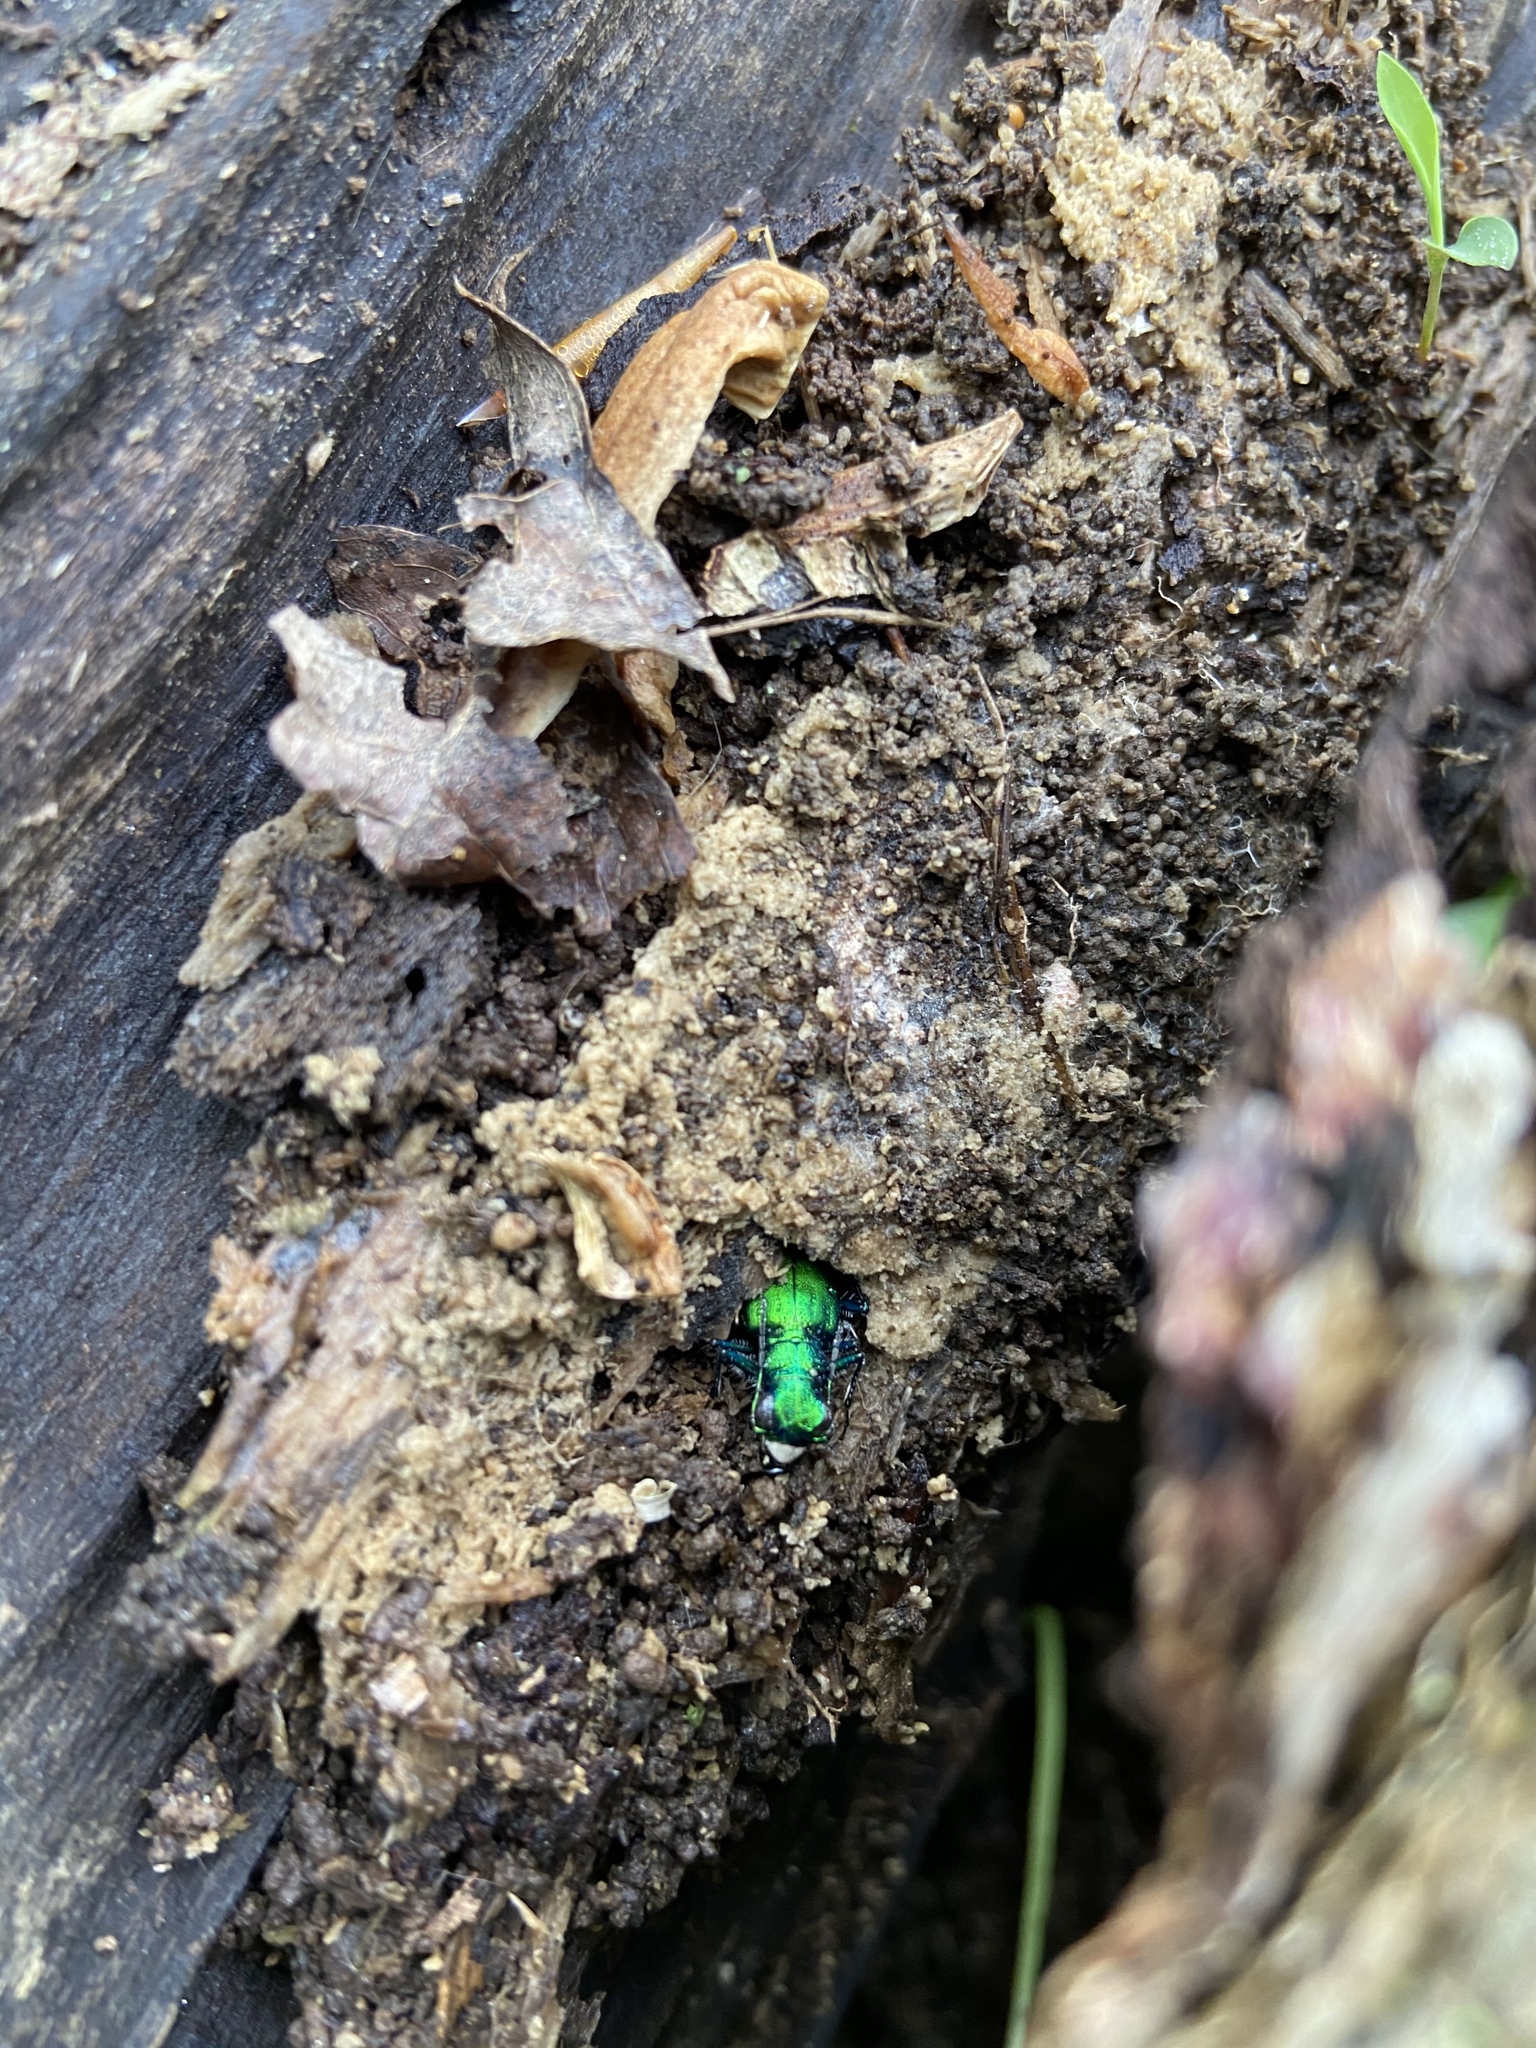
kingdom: Animalia
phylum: Arthropoda
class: Insecta
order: Coleoptera
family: Carabidae
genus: Cicindela
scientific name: Cicindela sexguttata
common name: Six-spotted tiger beetle
